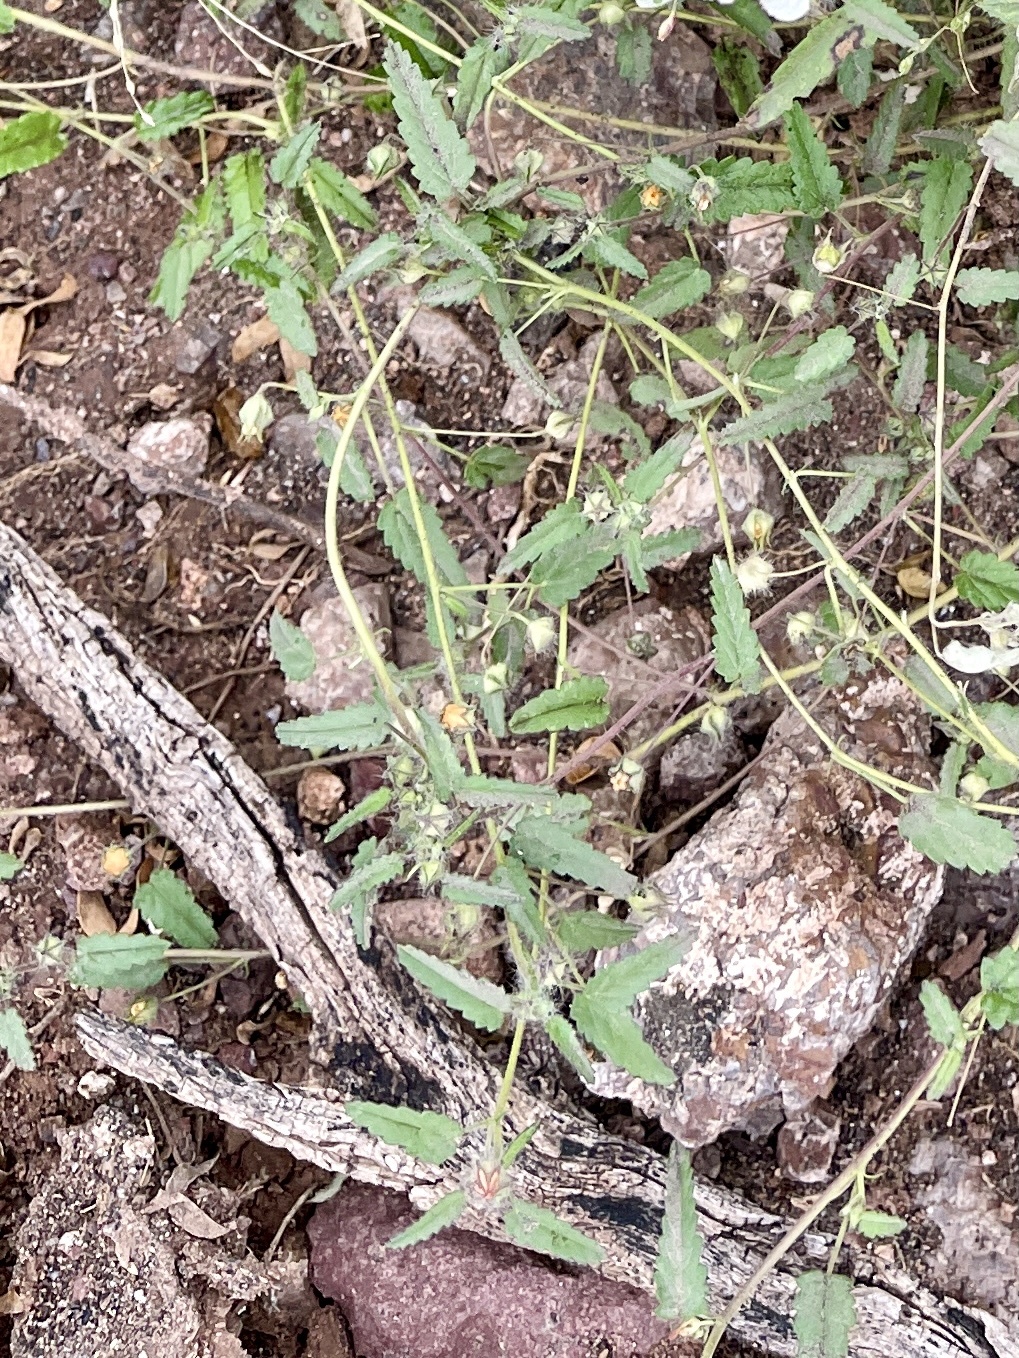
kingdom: Plantae
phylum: Tracheophyta
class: Magnoliopsida
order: Malvales
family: Malvaceae
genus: Sida
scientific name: Sida abutilifolia
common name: Spreading fanpetals
